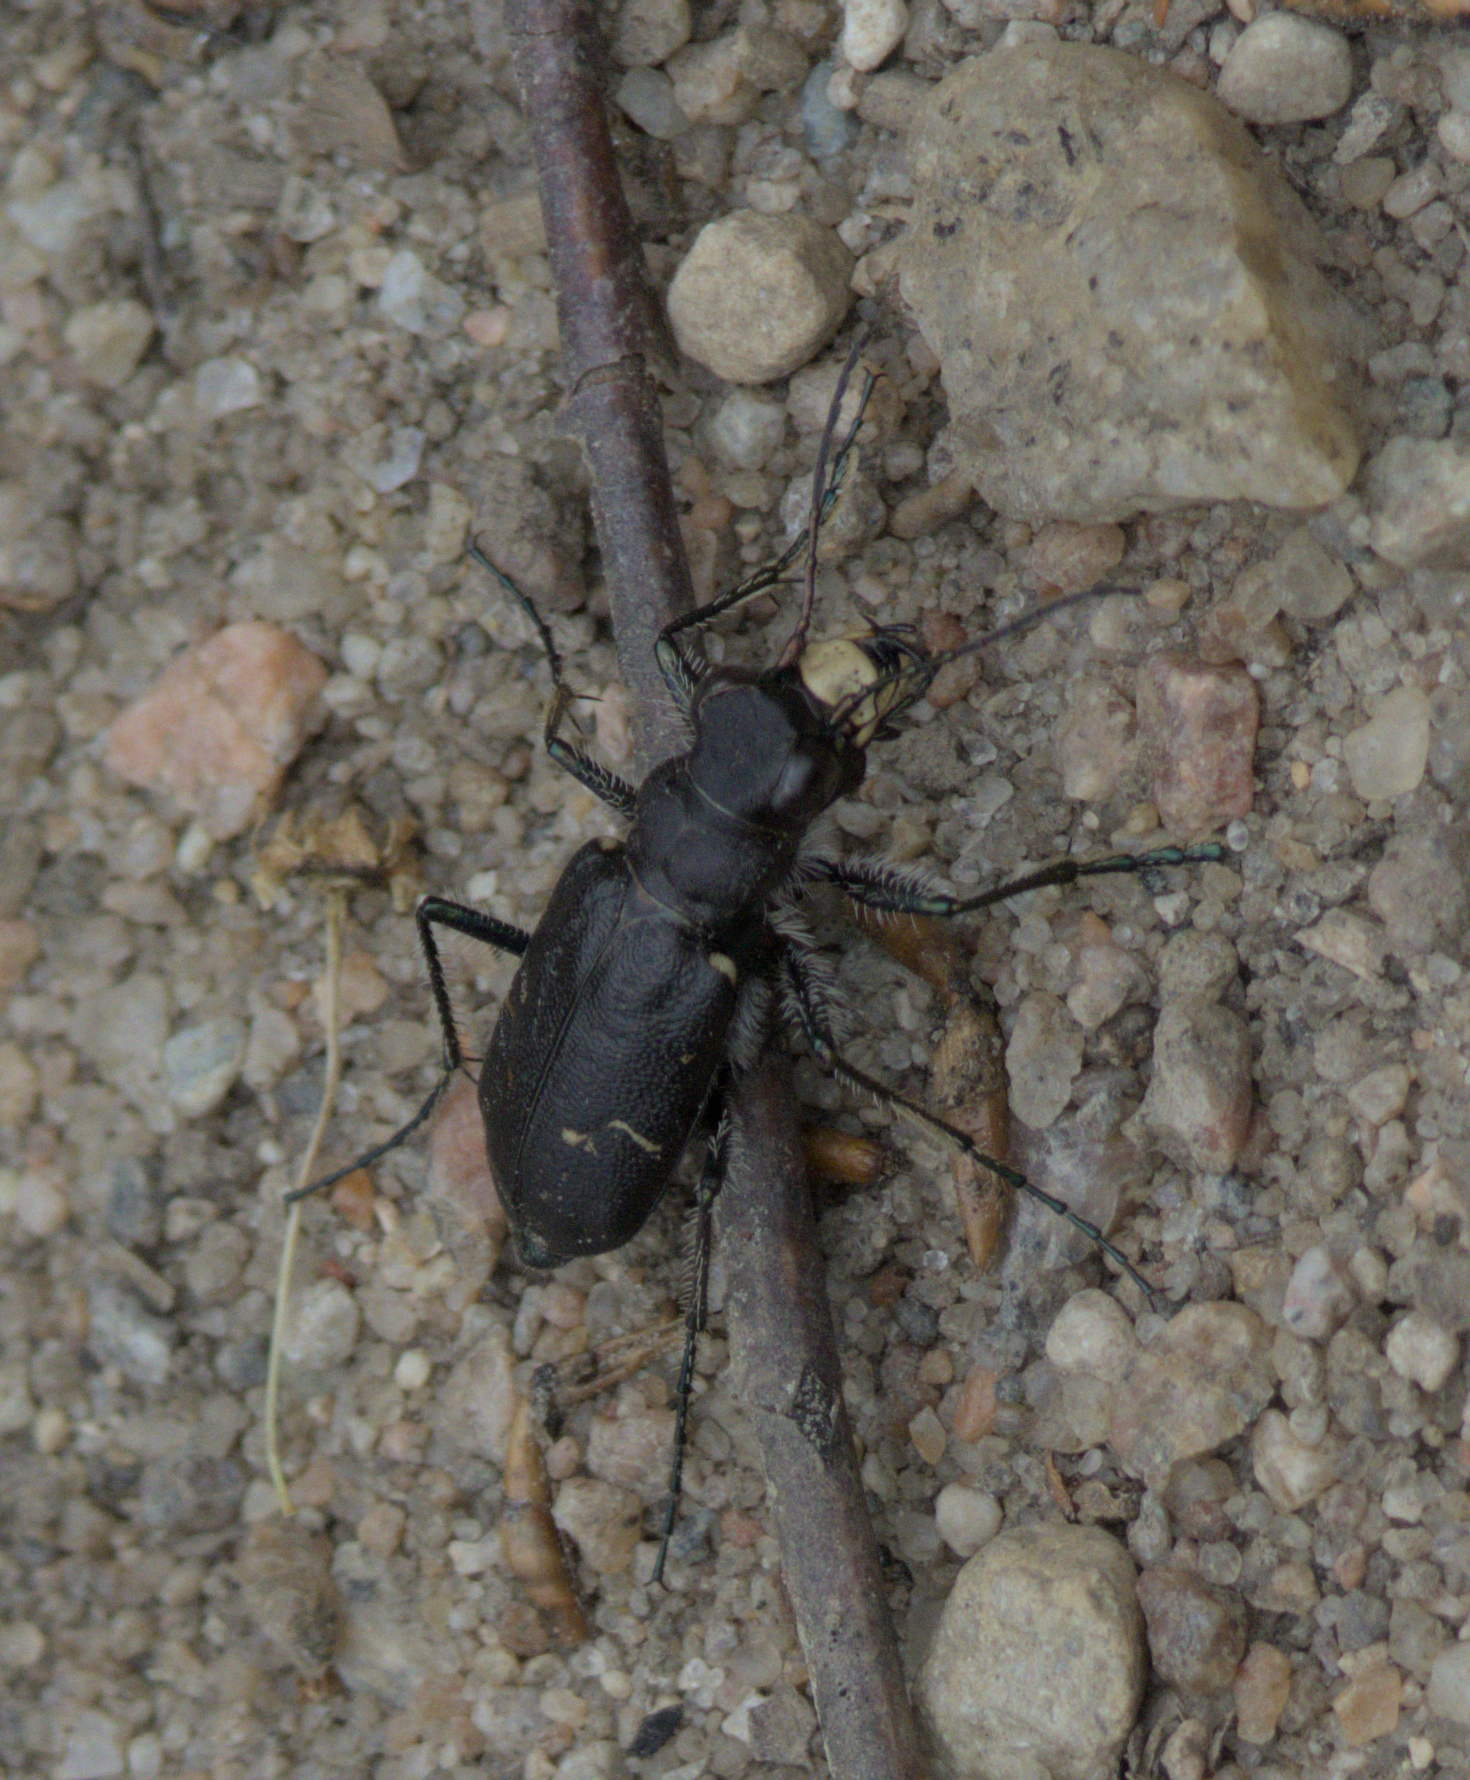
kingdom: Animalia
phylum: Arthropoda
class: Insecta
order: Coleoptera
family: Carabidae
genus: Cicindela
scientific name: Cicindela longilabris
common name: Boreal long-lipped tiger beetle
